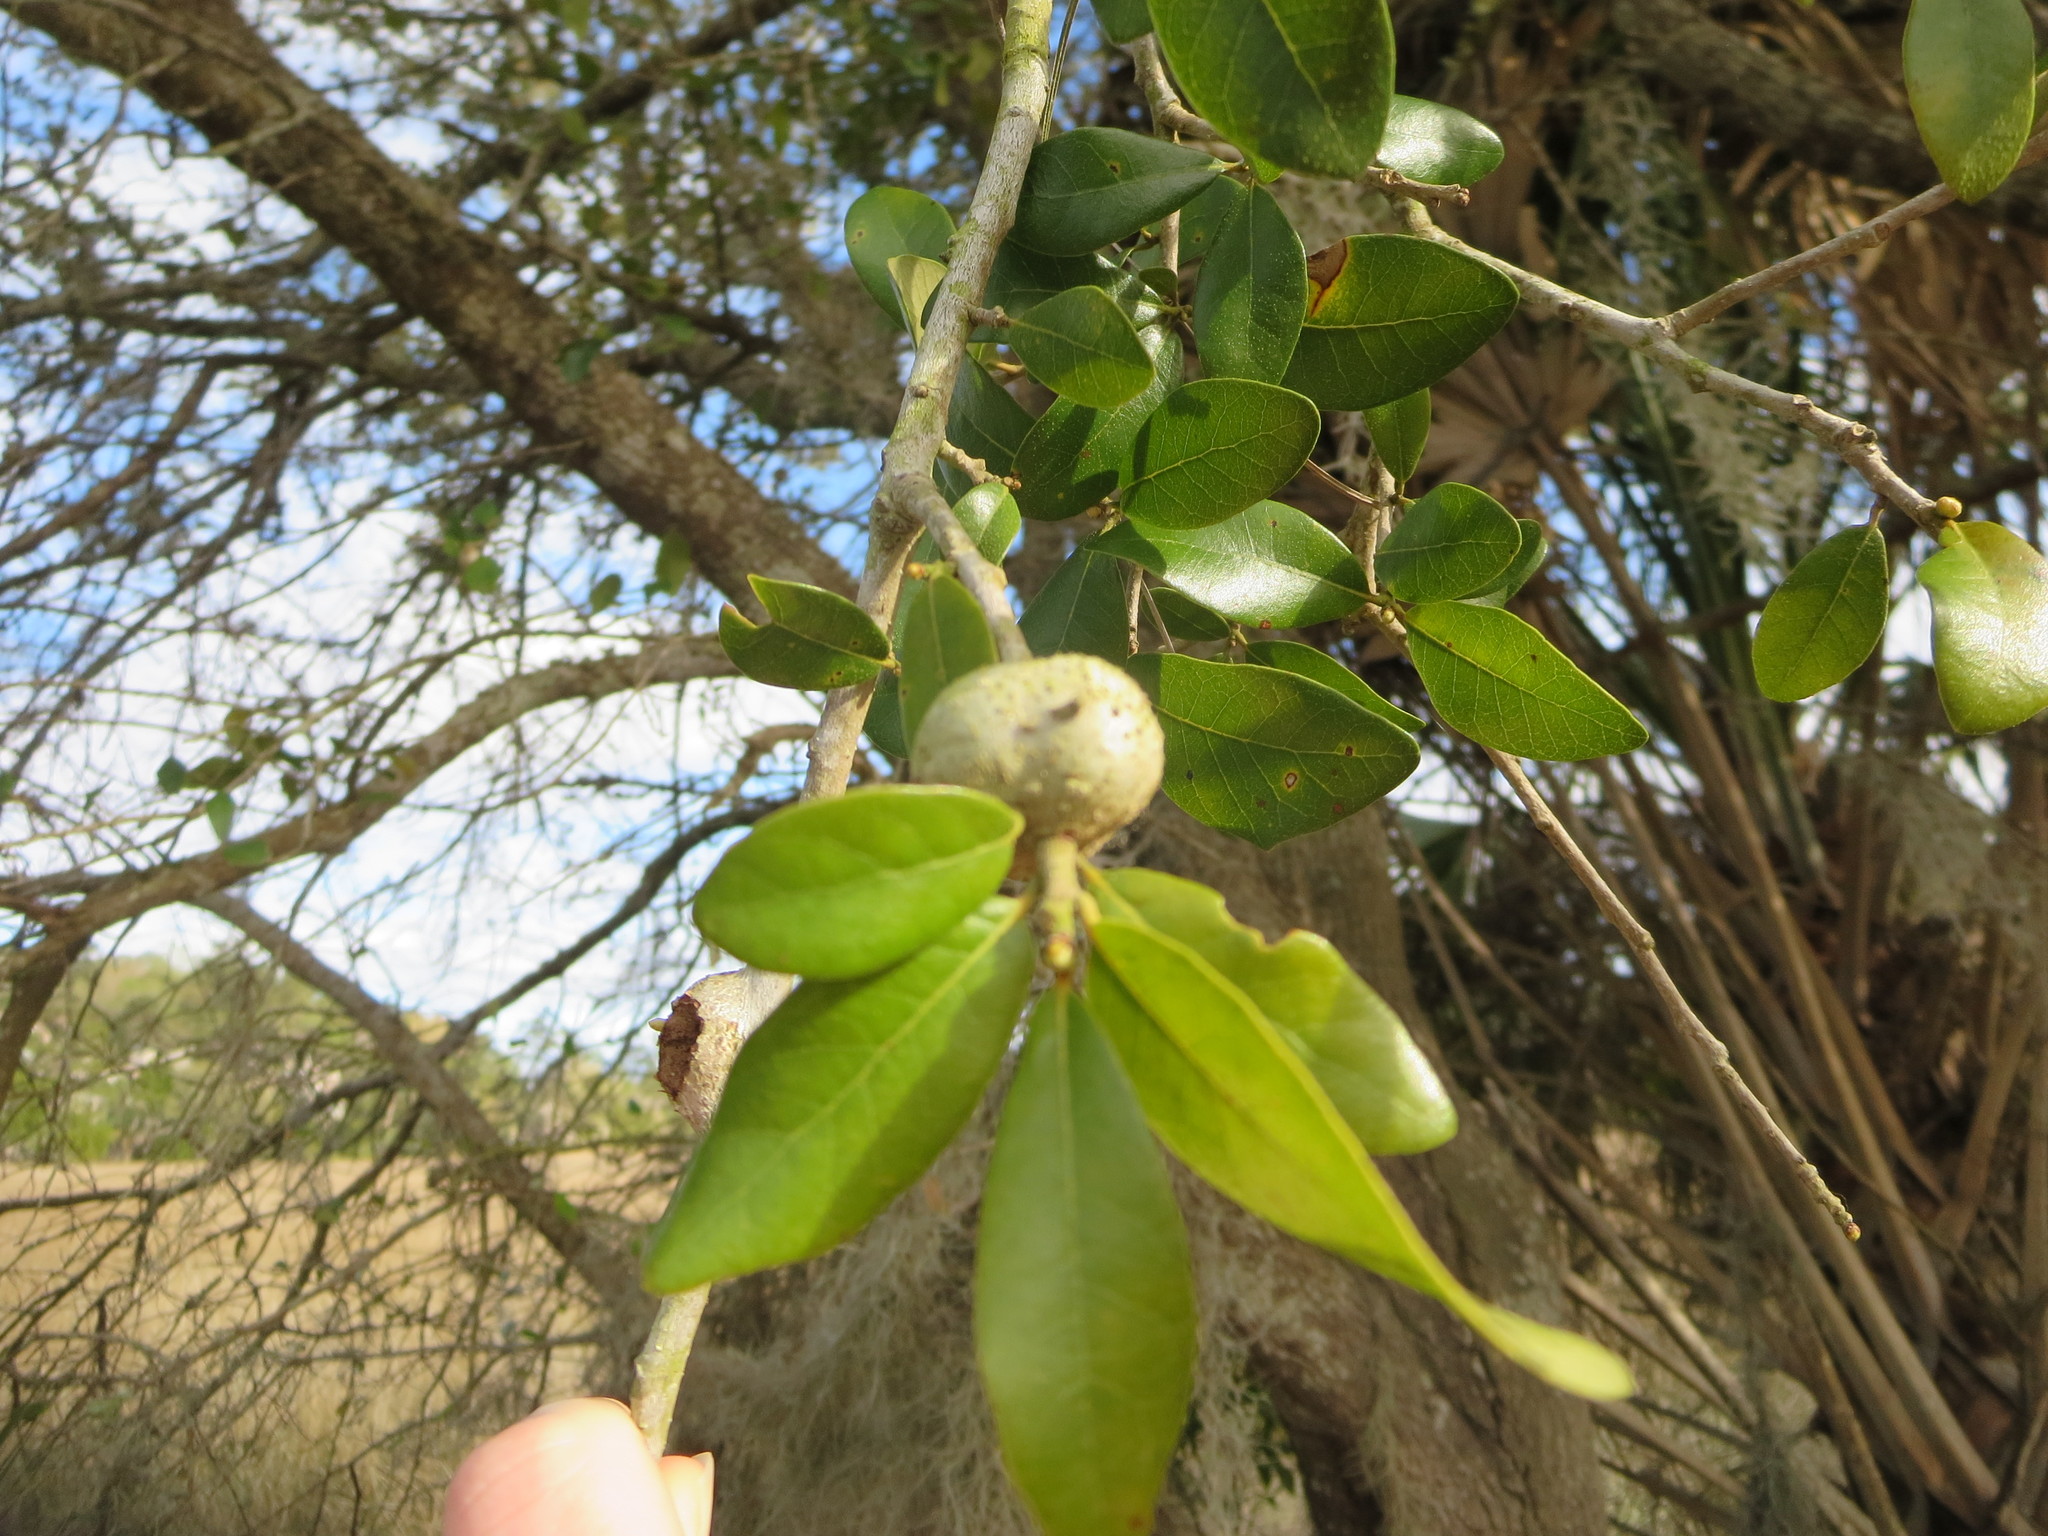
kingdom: Animalia
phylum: Arthropoda
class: Insecta
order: Hymenoptera
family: Cynipidae
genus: Callirhytis
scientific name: Callirhytis
